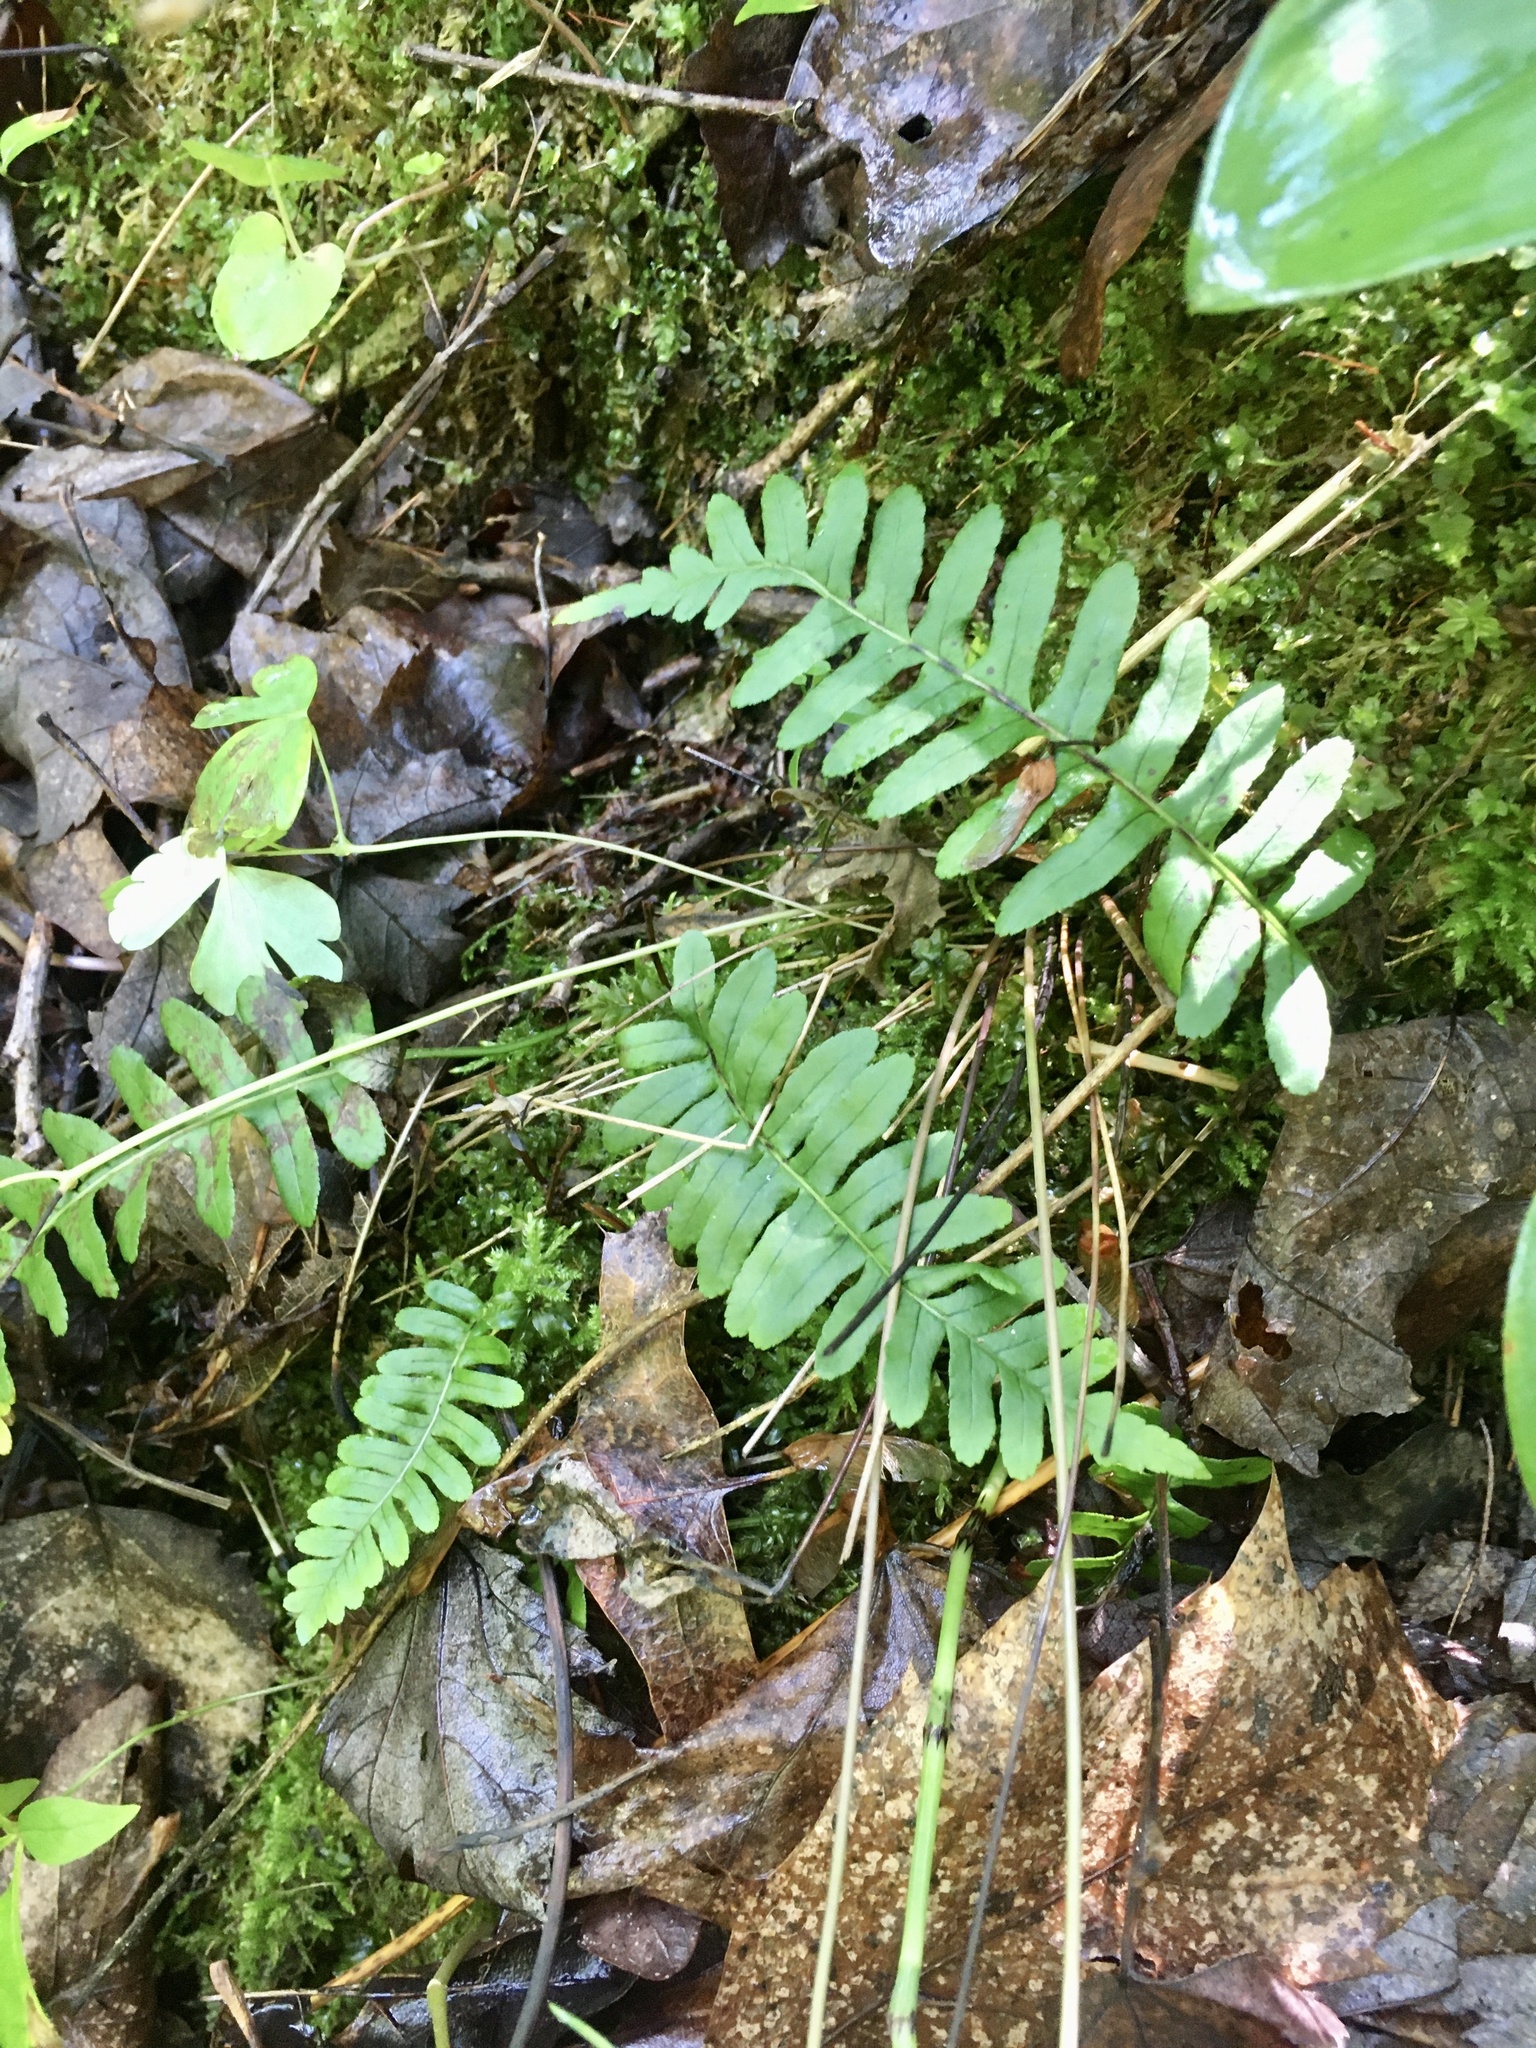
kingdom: Plantae
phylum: Tracheophyta
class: Polypodiopsida
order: Polypodiales
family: Polypodiaceae
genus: Polypodium
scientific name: Polypodium virginianum
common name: American wall fern
